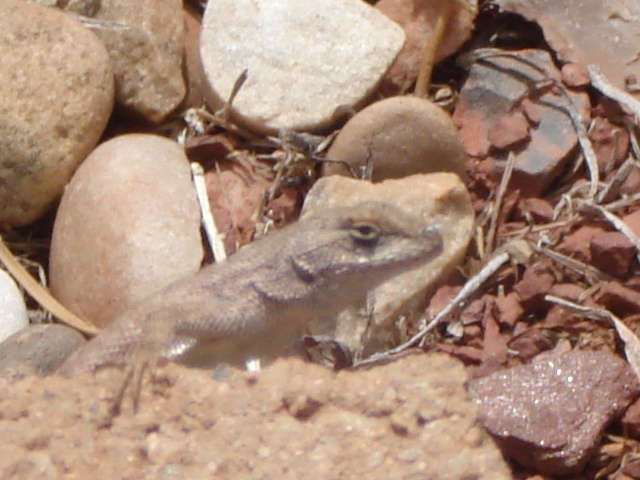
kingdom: Animalia
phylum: Chordata
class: Squamata
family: Phrynosomatidae
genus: Sceloporus
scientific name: Sceloporus
